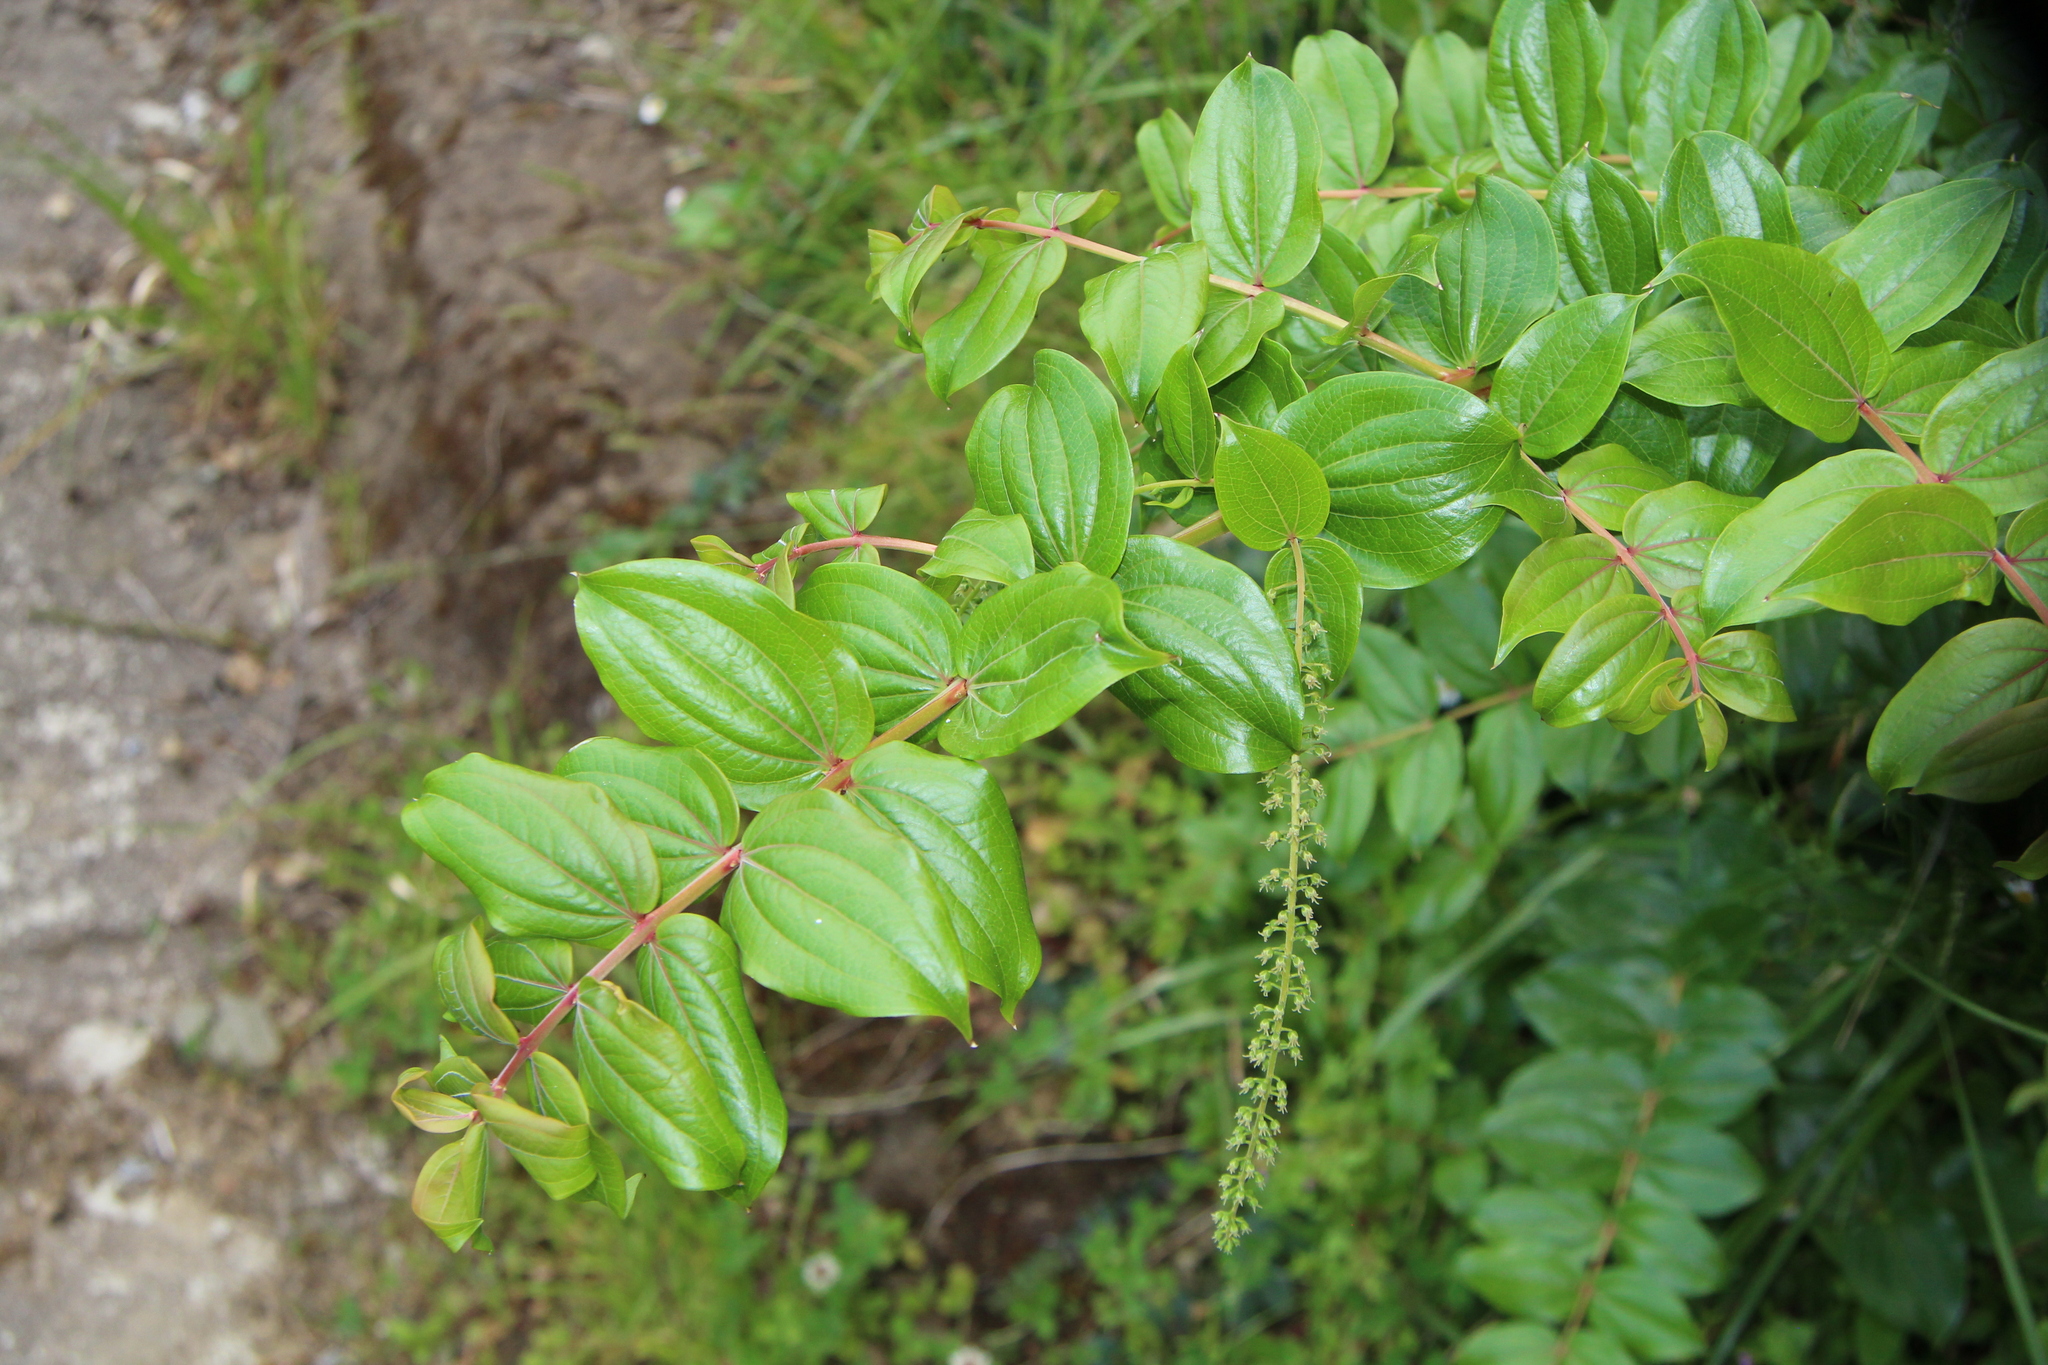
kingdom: Plantae
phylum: Tracheophyta
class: Magnoliopsida
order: Cucurbitales
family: Coriariaceae
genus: Coriaria
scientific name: Coriaria arborea
